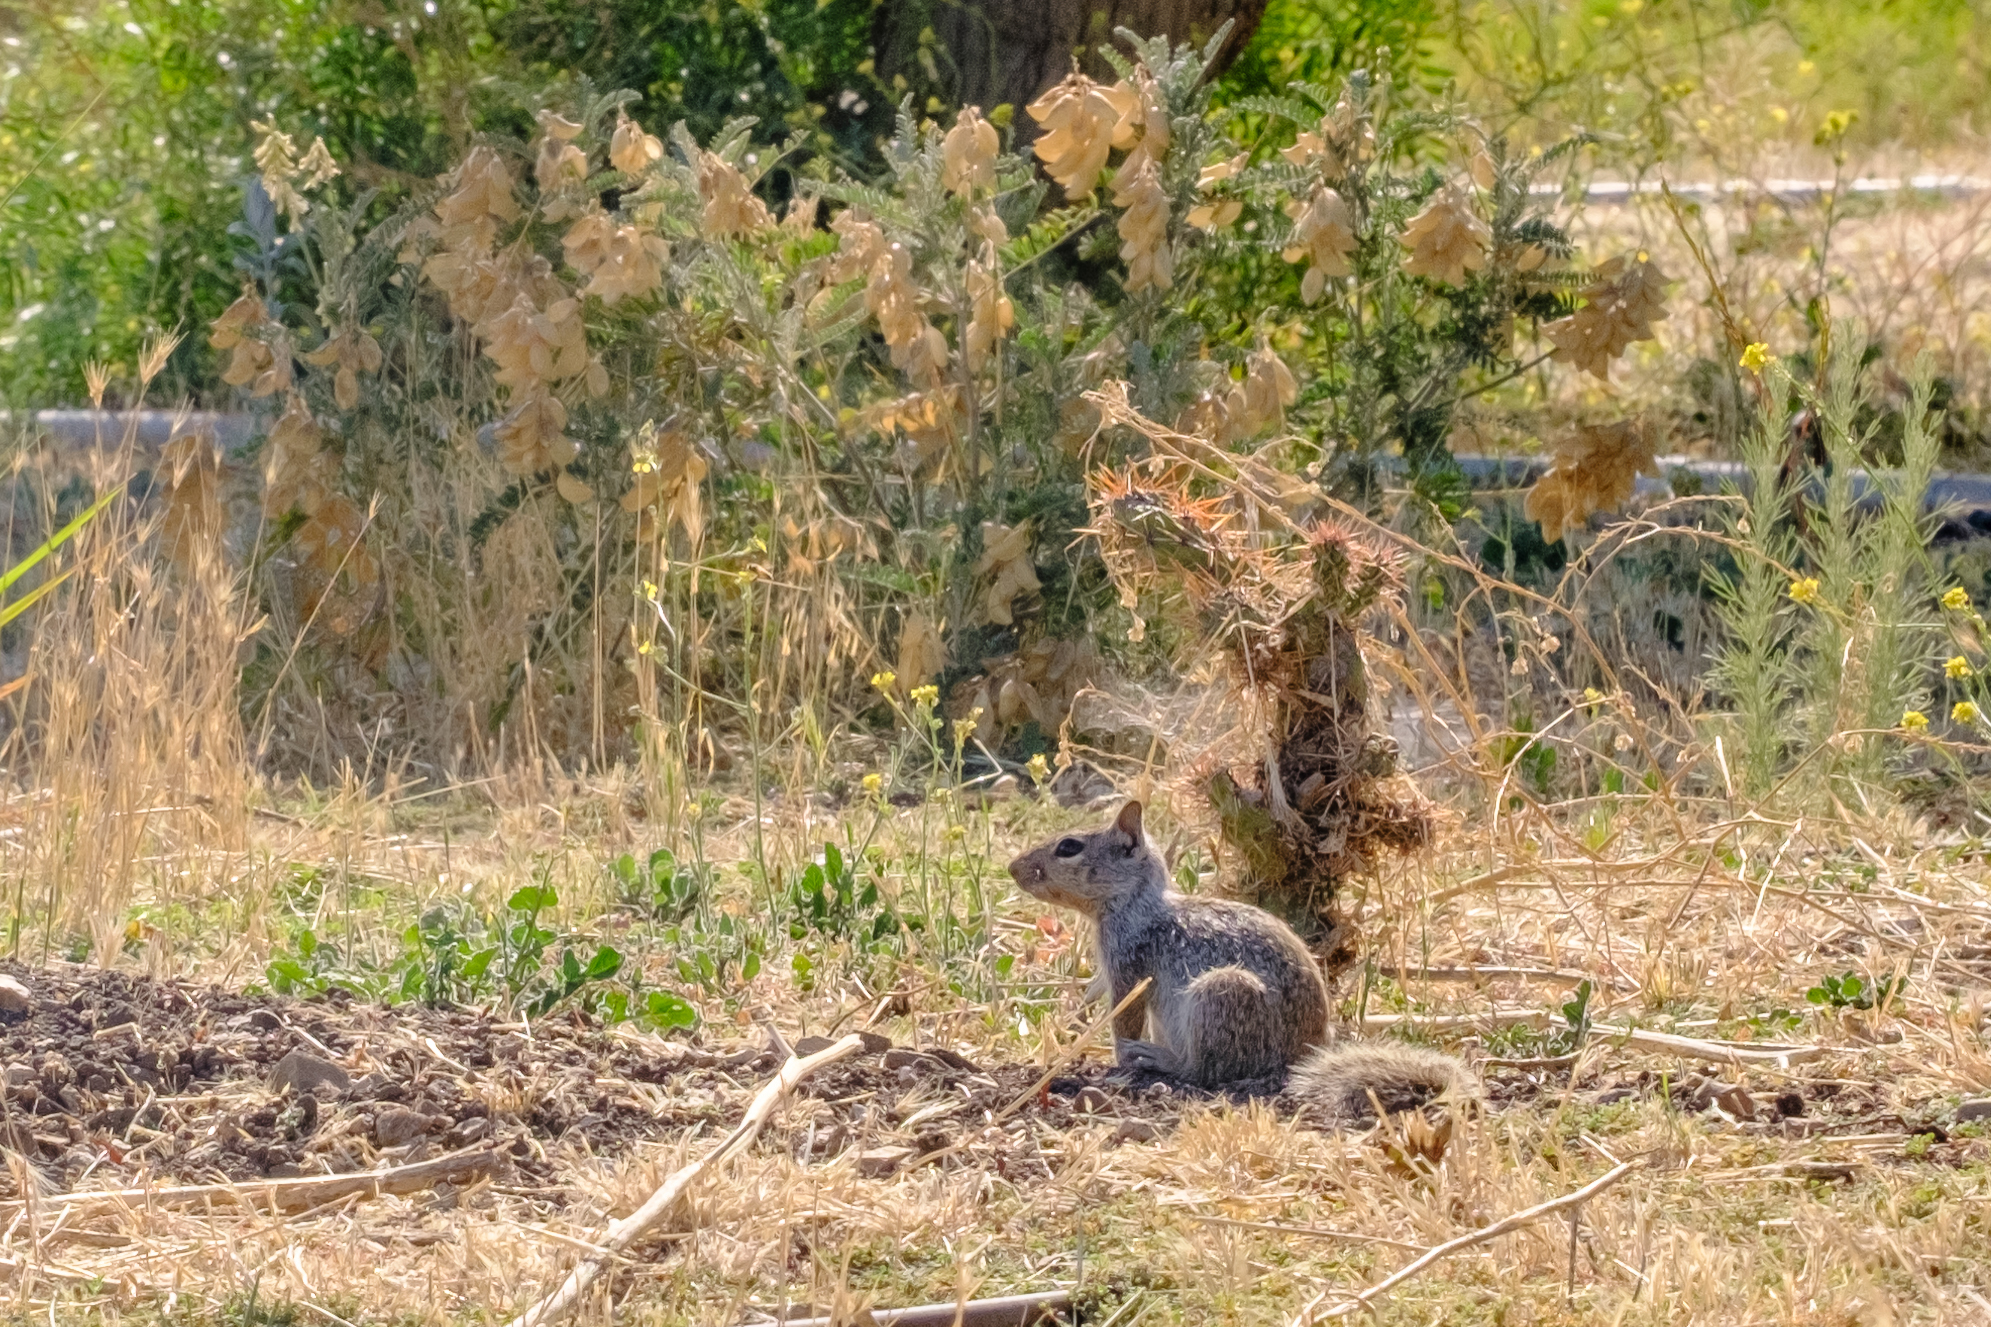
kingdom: Animalia
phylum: Chordata
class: Mammalia
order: Rodentia
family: Sciuridae
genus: Otospermophilus
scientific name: Otospermophilus beecheyi
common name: California ground squirrel
